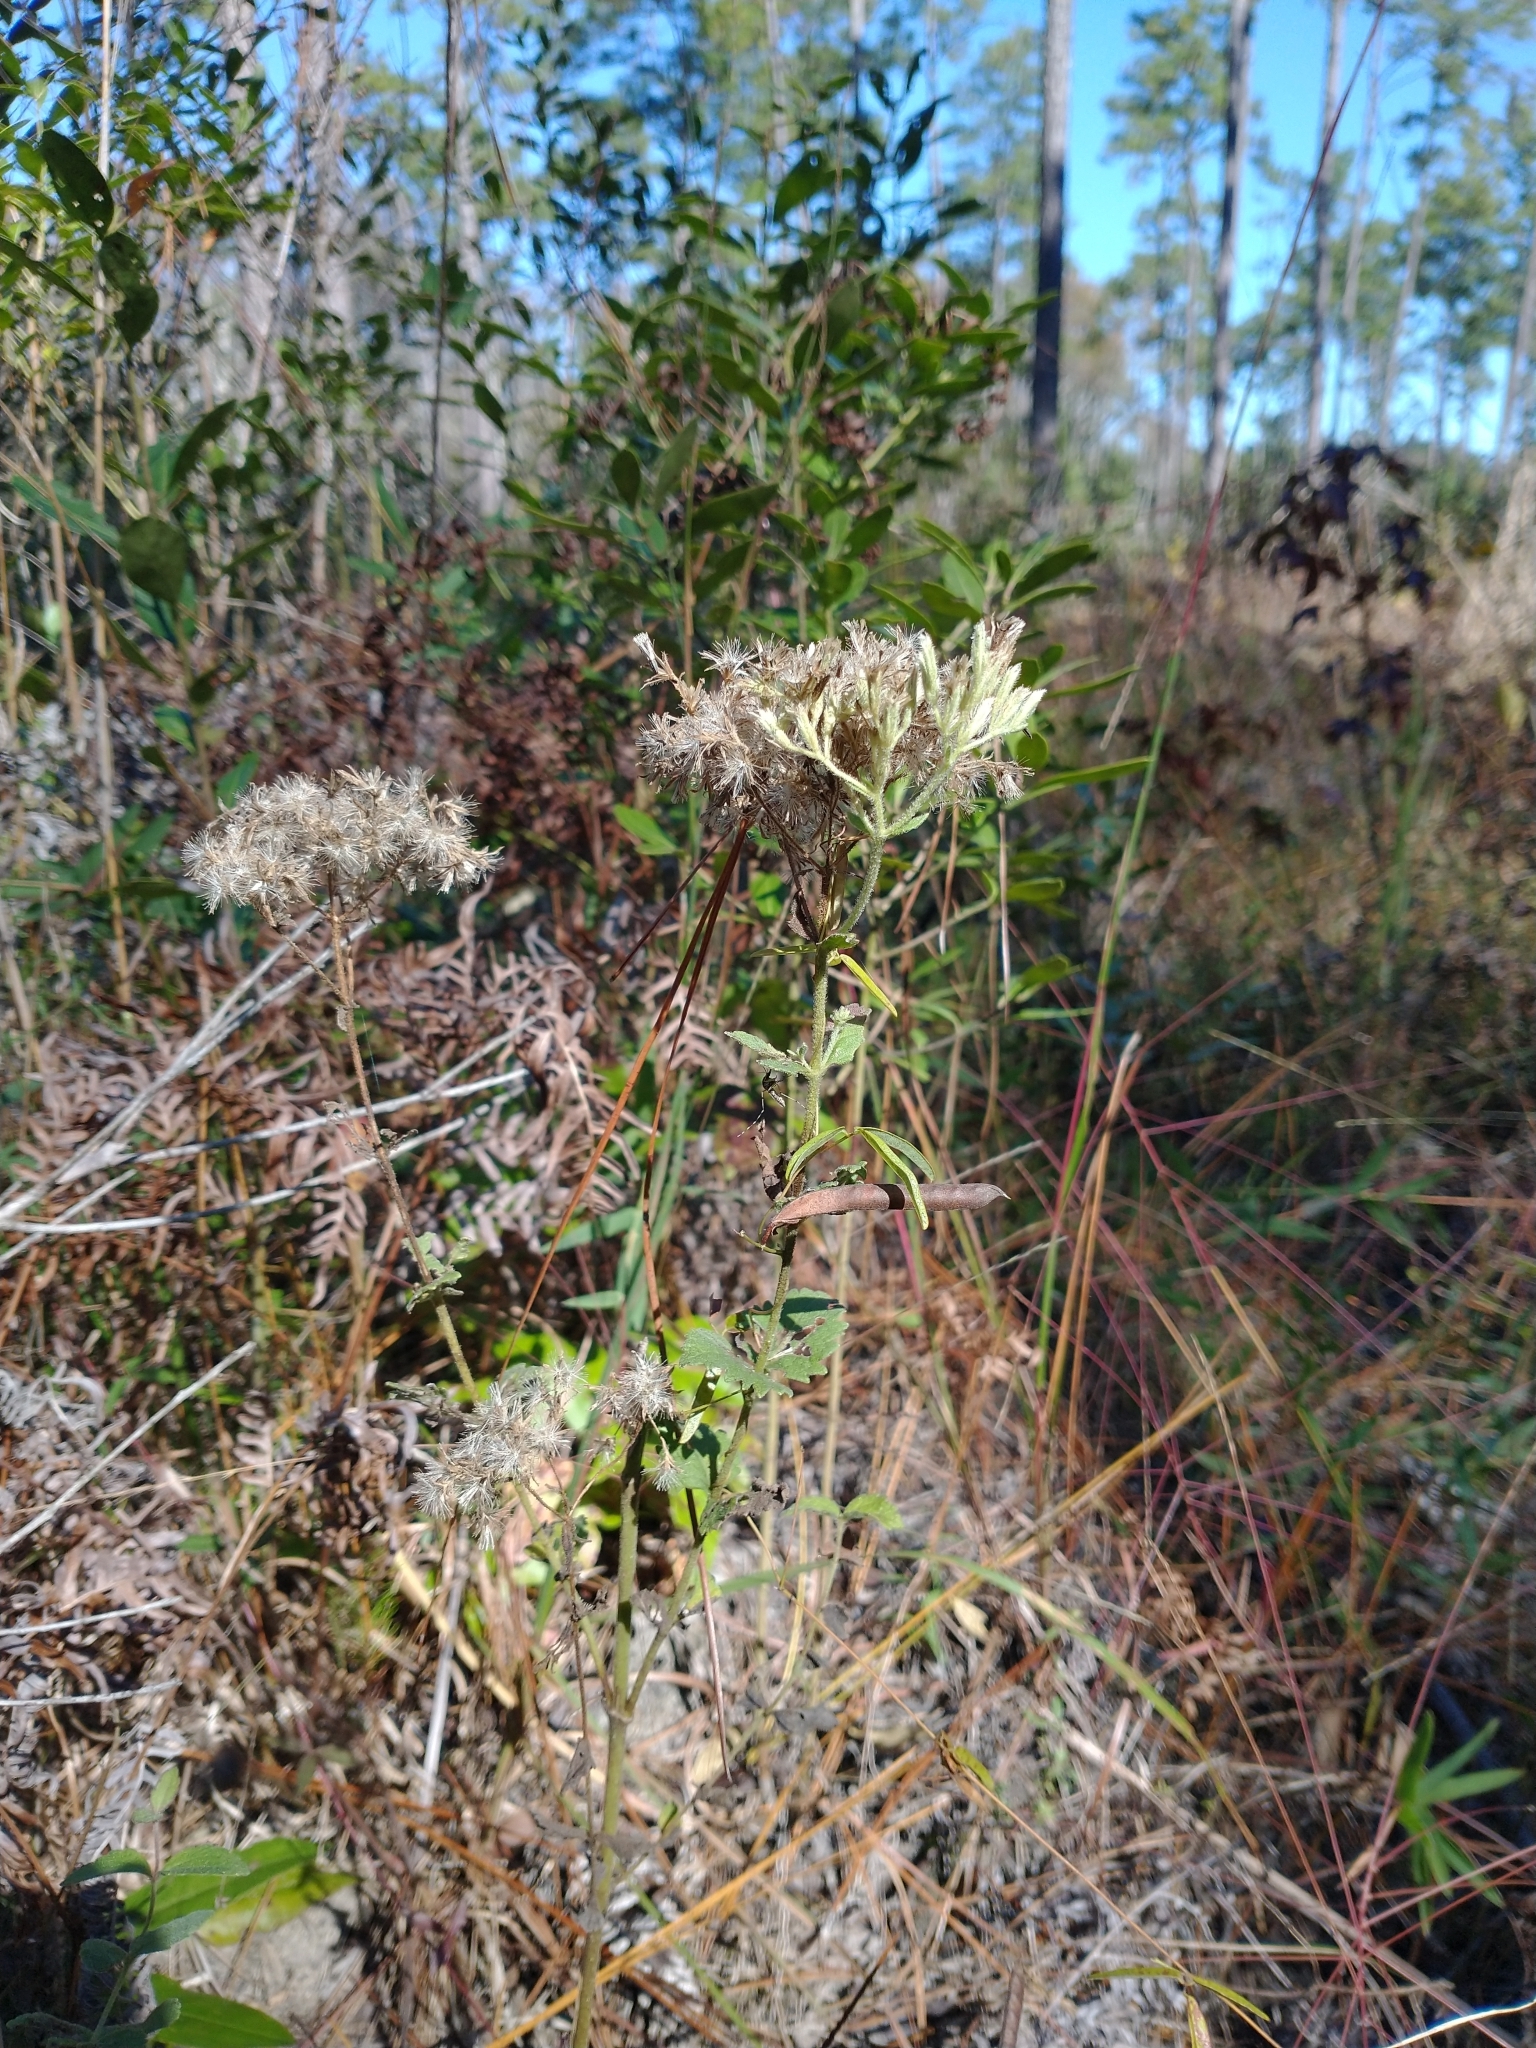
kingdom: Plantae
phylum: Tracheophyta
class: Magnoliopsida
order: Asterales
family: Asteraceae
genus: Eupatorium
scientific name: Eupatorium rotundifolium
